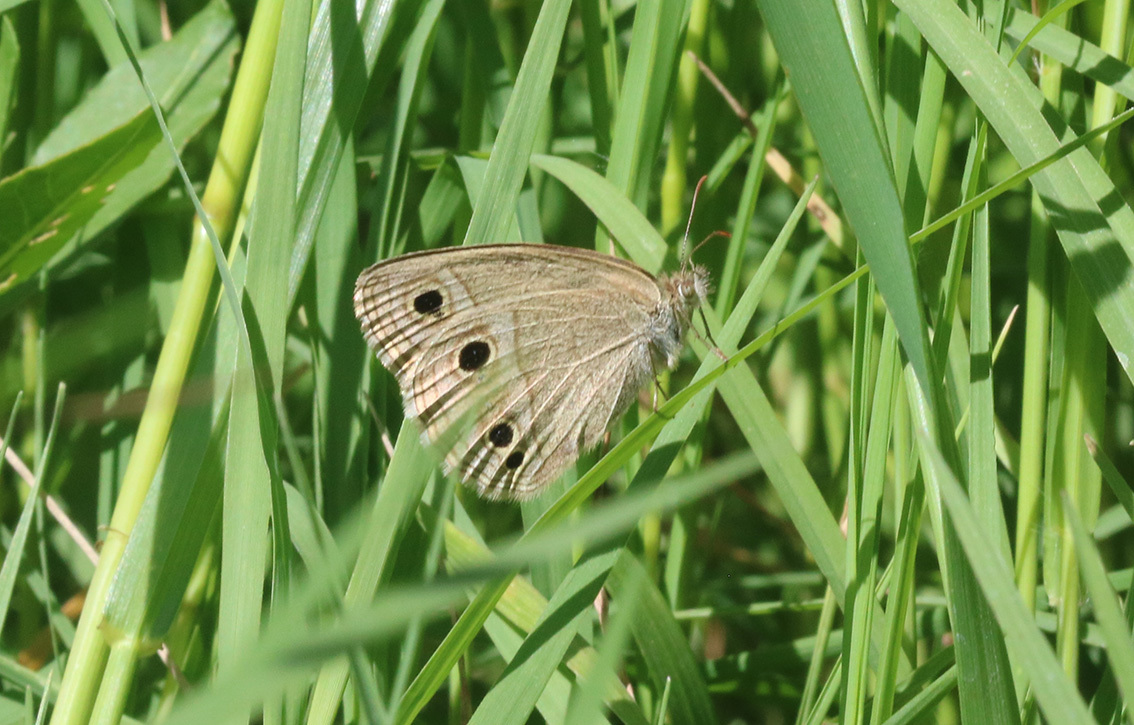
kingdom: Animalia
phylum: Arthropoda
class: Insecta
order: Lepidoptera
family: Nymphalidae
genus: Stegosatyrus
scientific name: Stegosatyrus periphas
